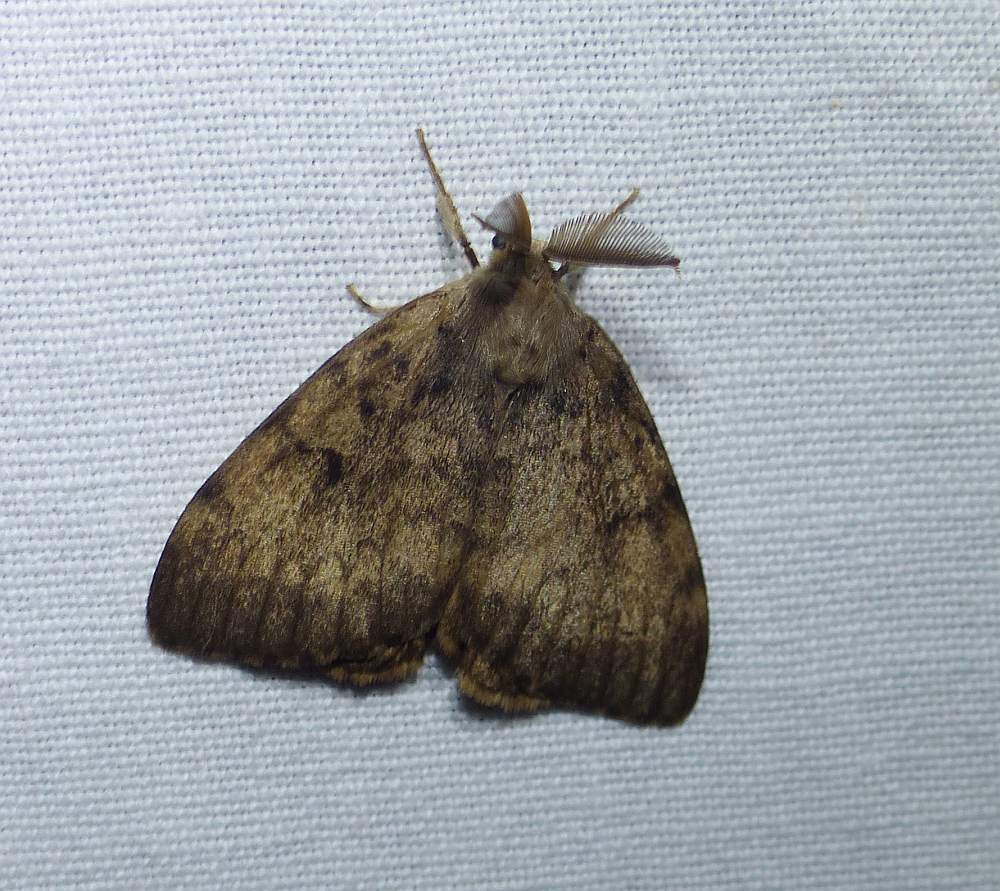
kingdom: Animalia
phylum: Arthropoda
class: Insecta
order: Lepidoptera
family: Erebidae
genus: Lymantria
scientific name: Lymantria dispar
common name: Gypsy moth
